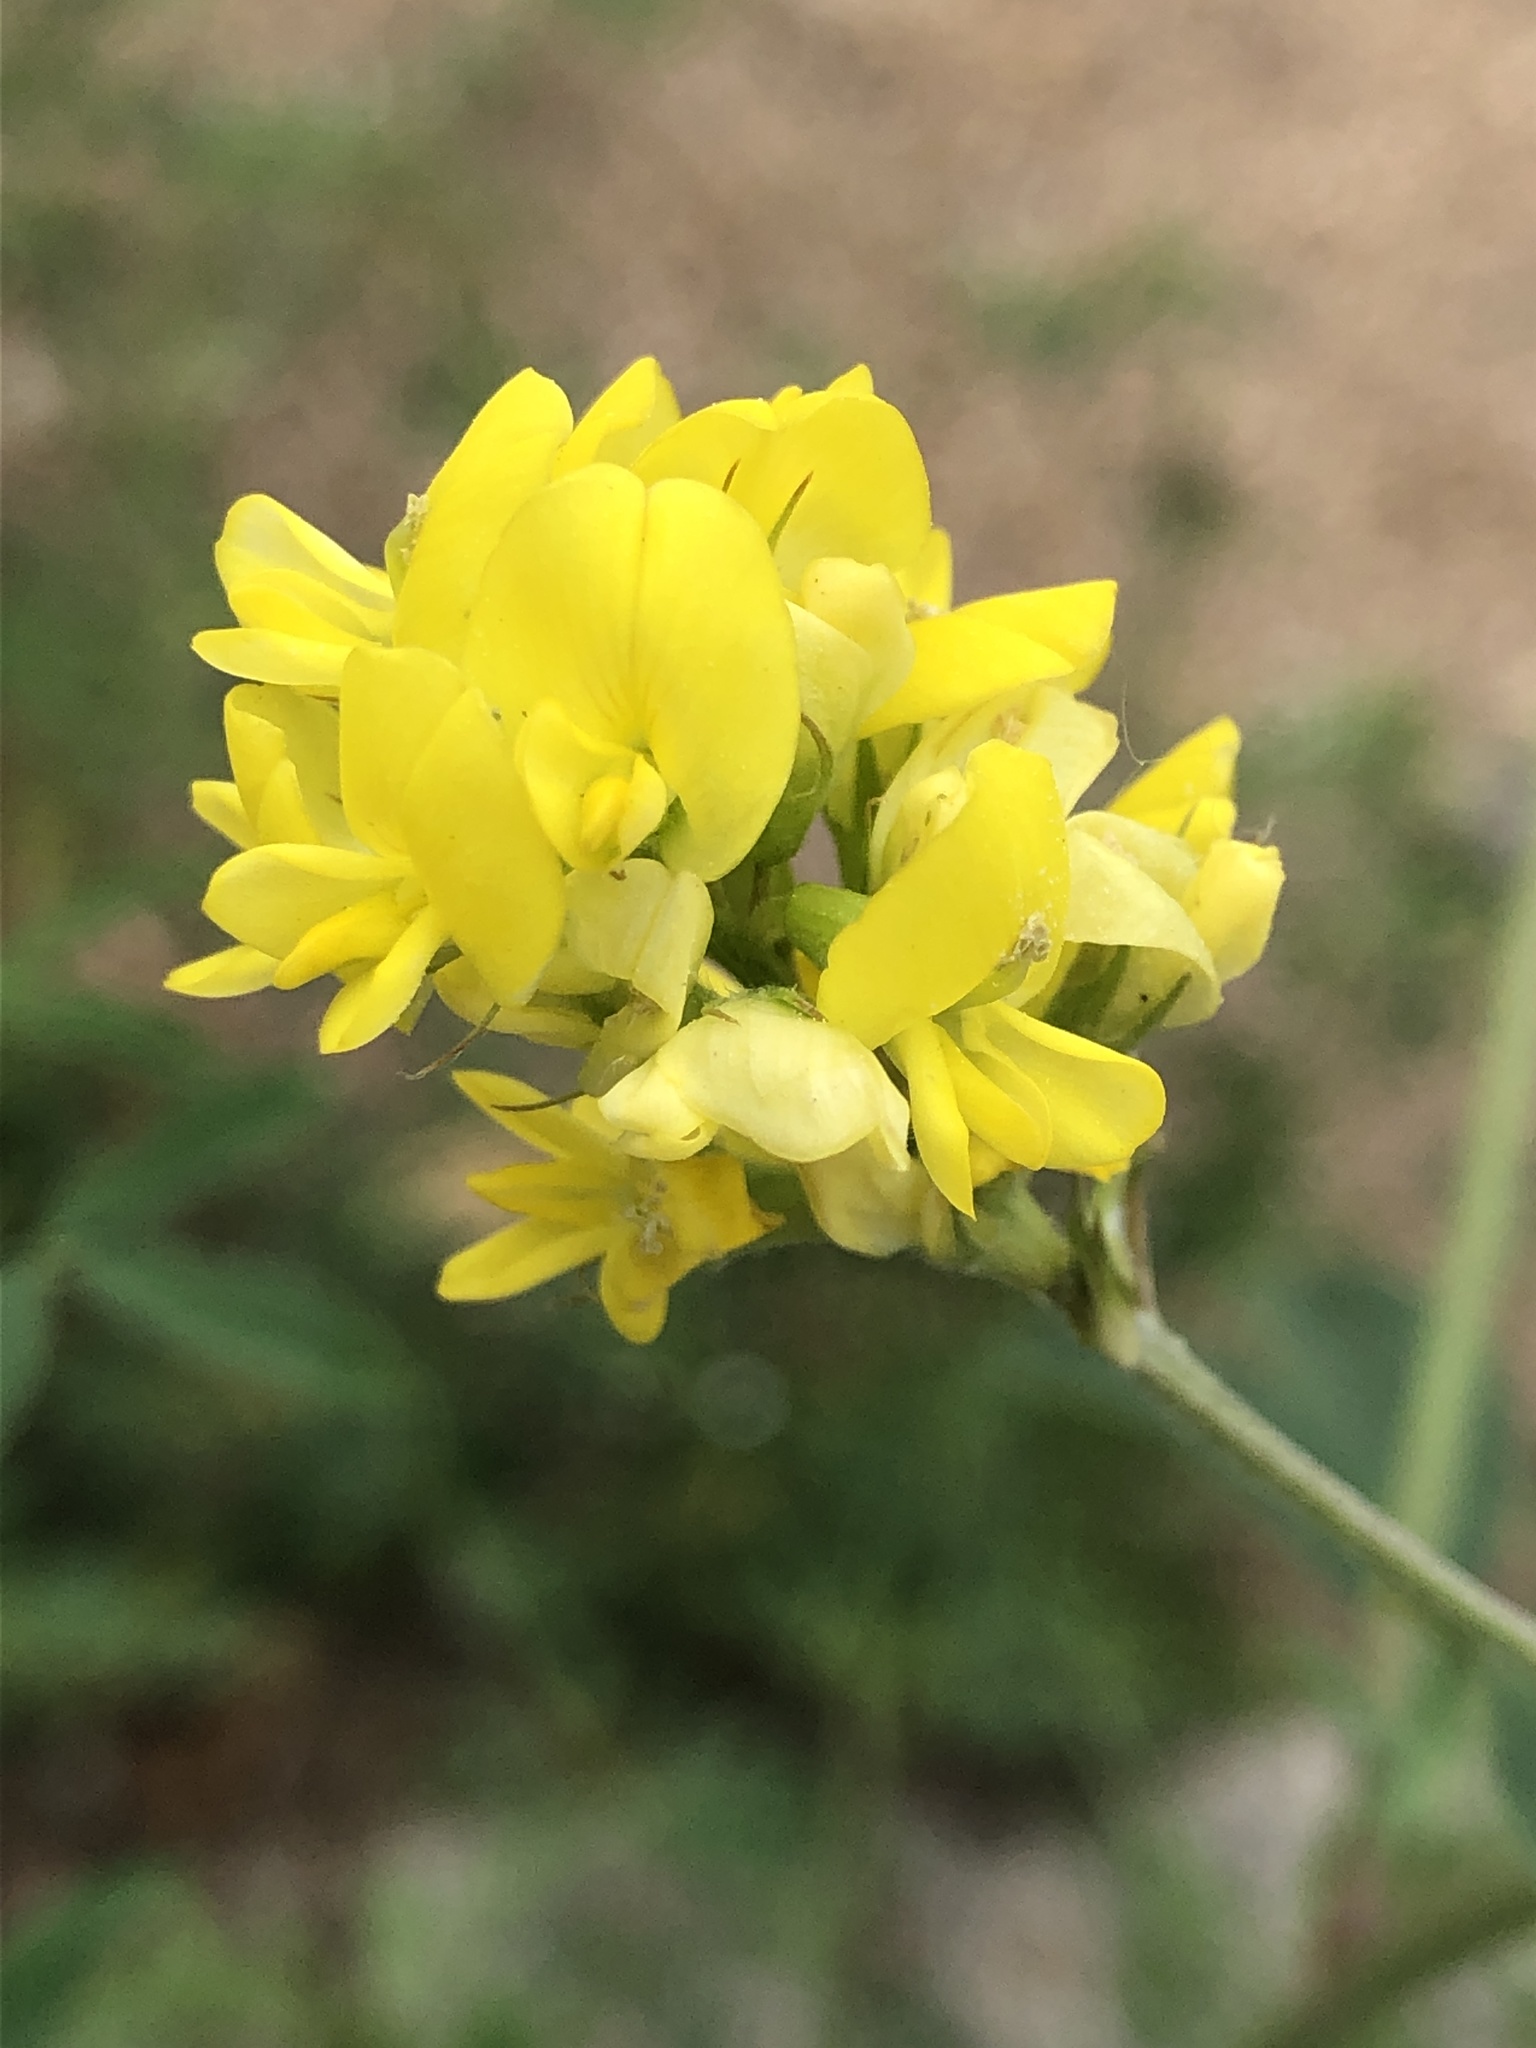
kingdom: Plantae
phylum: Tracheophyta
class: Magnoliopsida
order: Fabales
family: Fabaceae
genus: Medicago
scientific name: Medicago falcata
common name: Sickle medick
